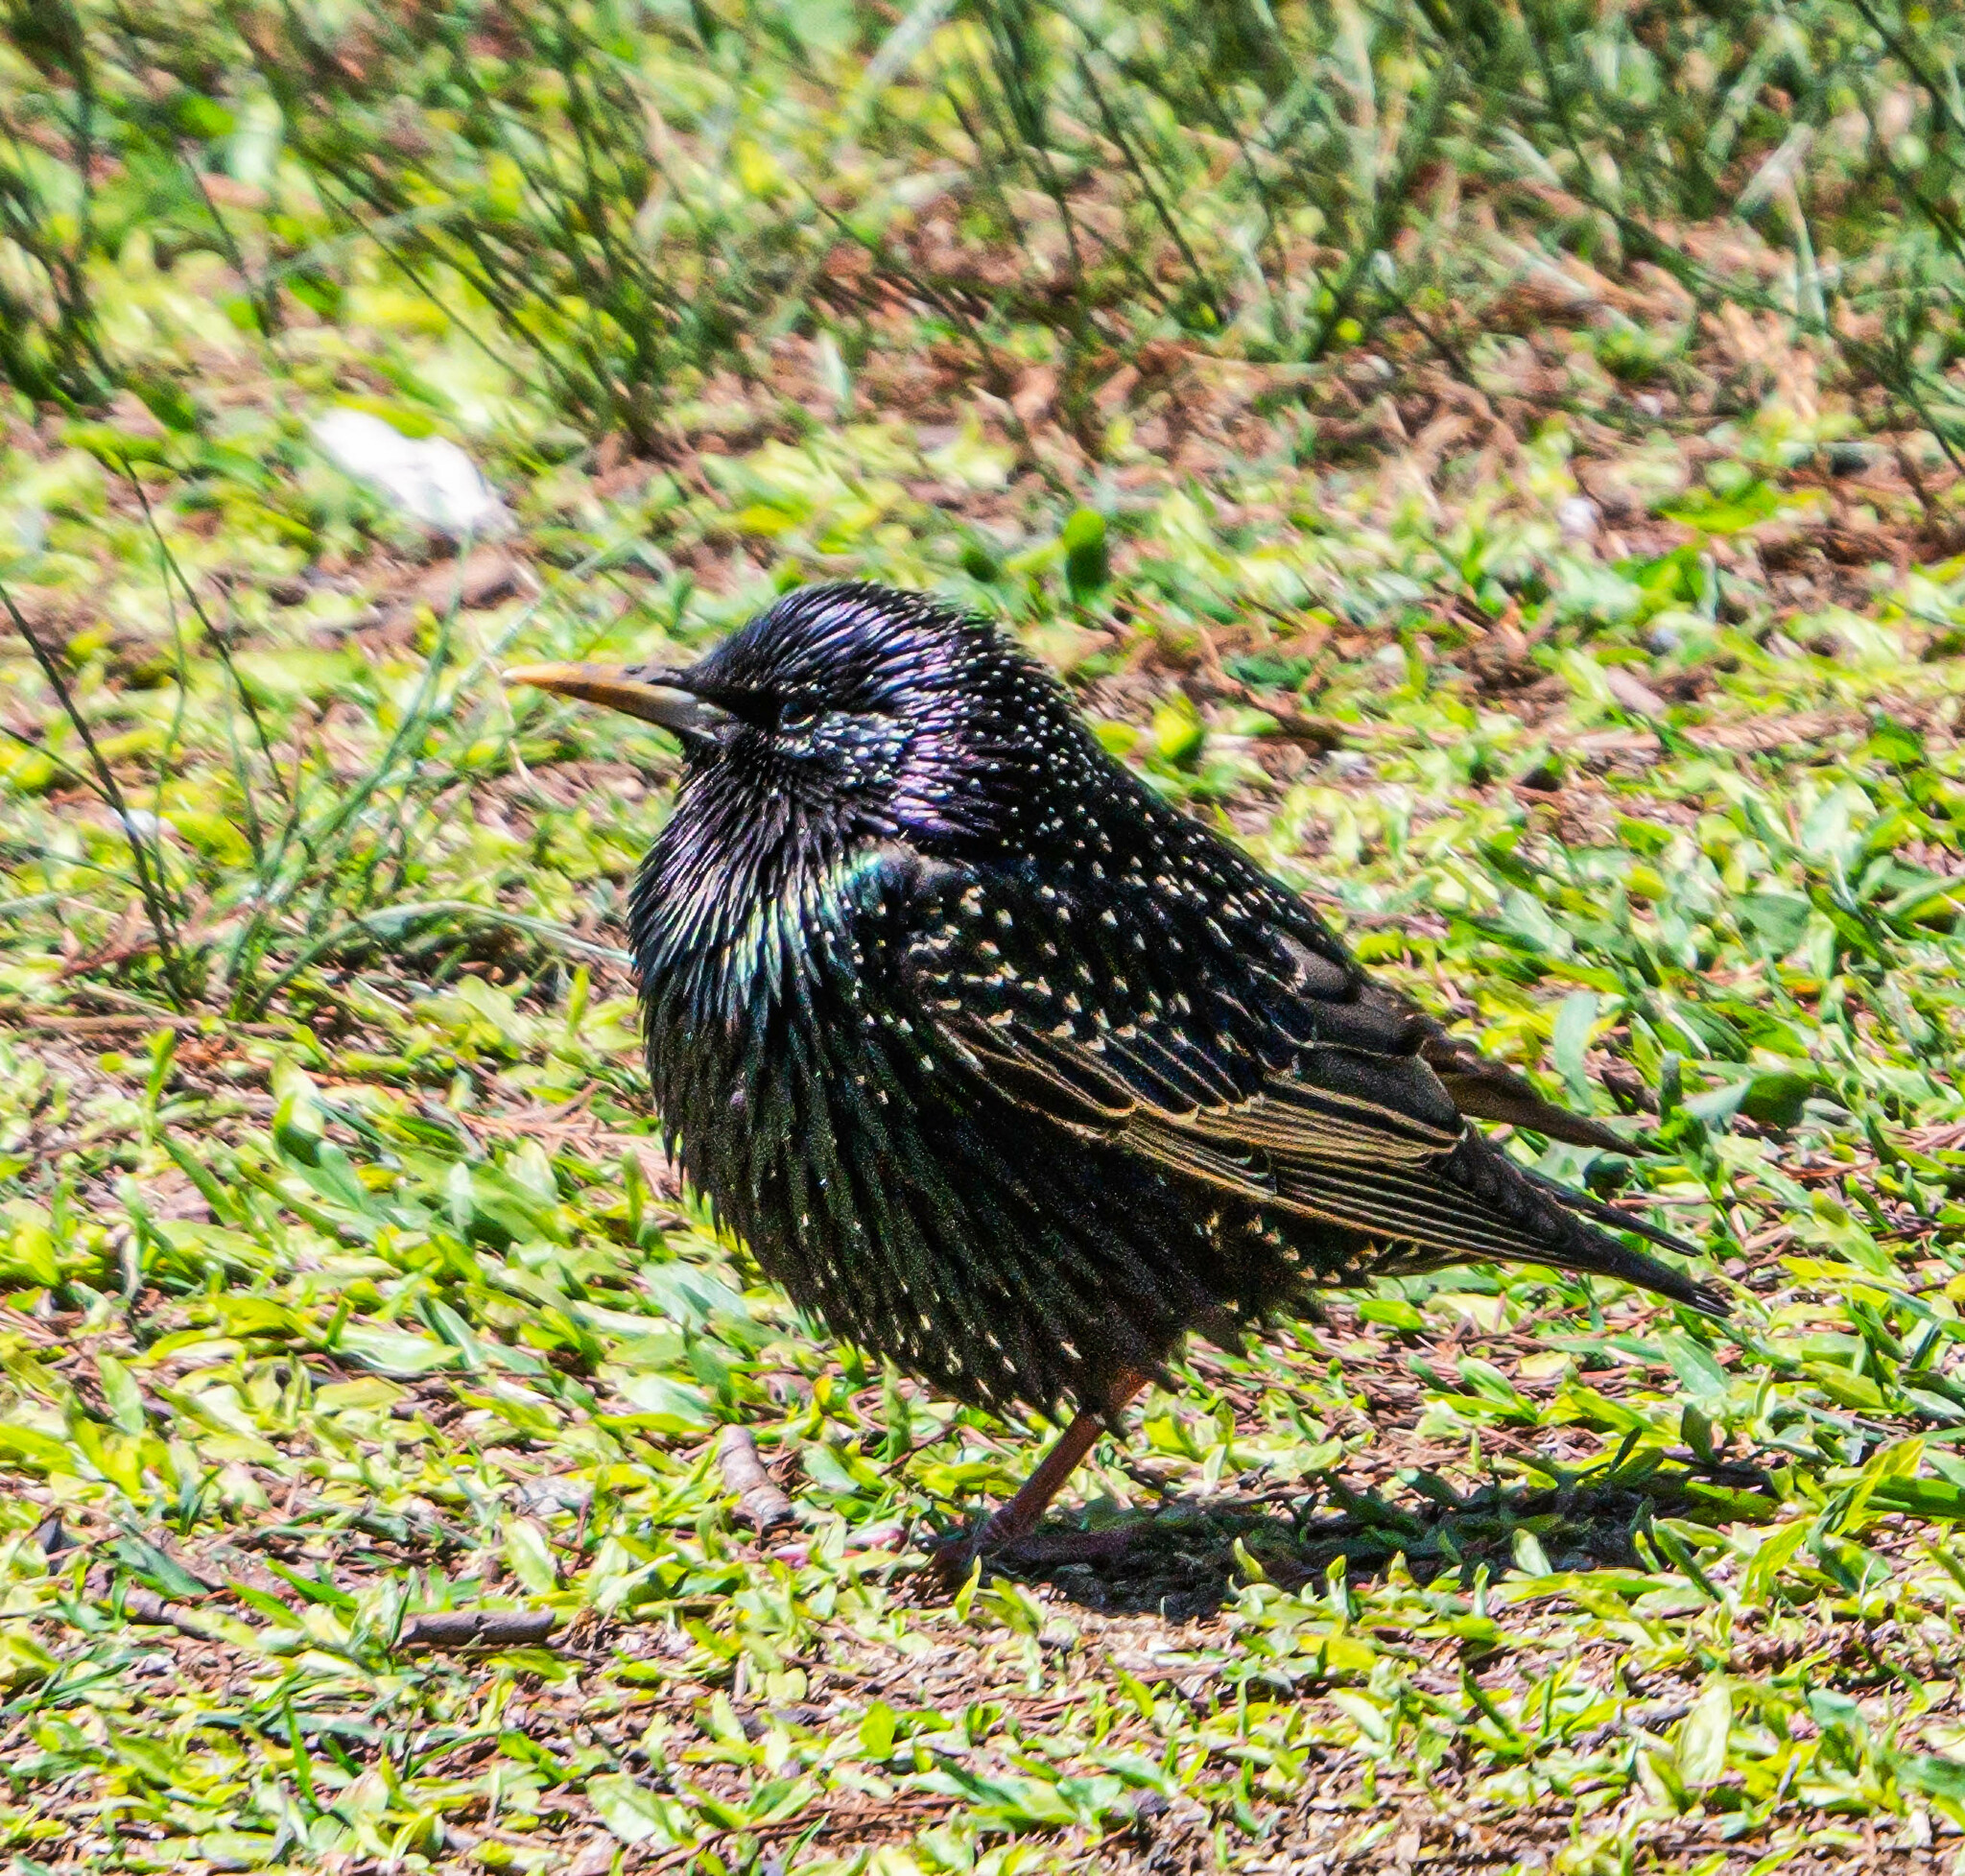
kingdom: Animalia
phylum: Chordata
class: Aves
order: Passeriformes
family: Sturnidae
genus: Sturnus
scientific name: Sturnus vulgaris
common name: Common starling
